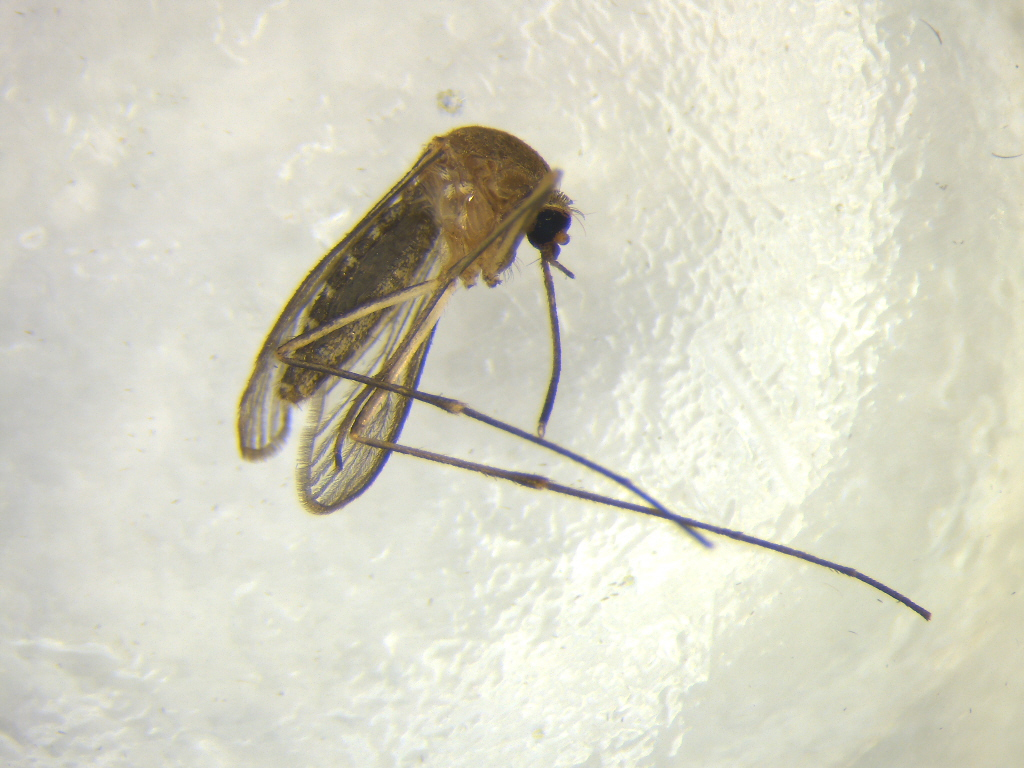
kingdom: Animalia
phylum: Arthropoda
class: Insecta
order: Diptera
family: Culicidae
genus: Culex
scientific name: Culex quinquefasciatus
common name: Southern house mosquito
